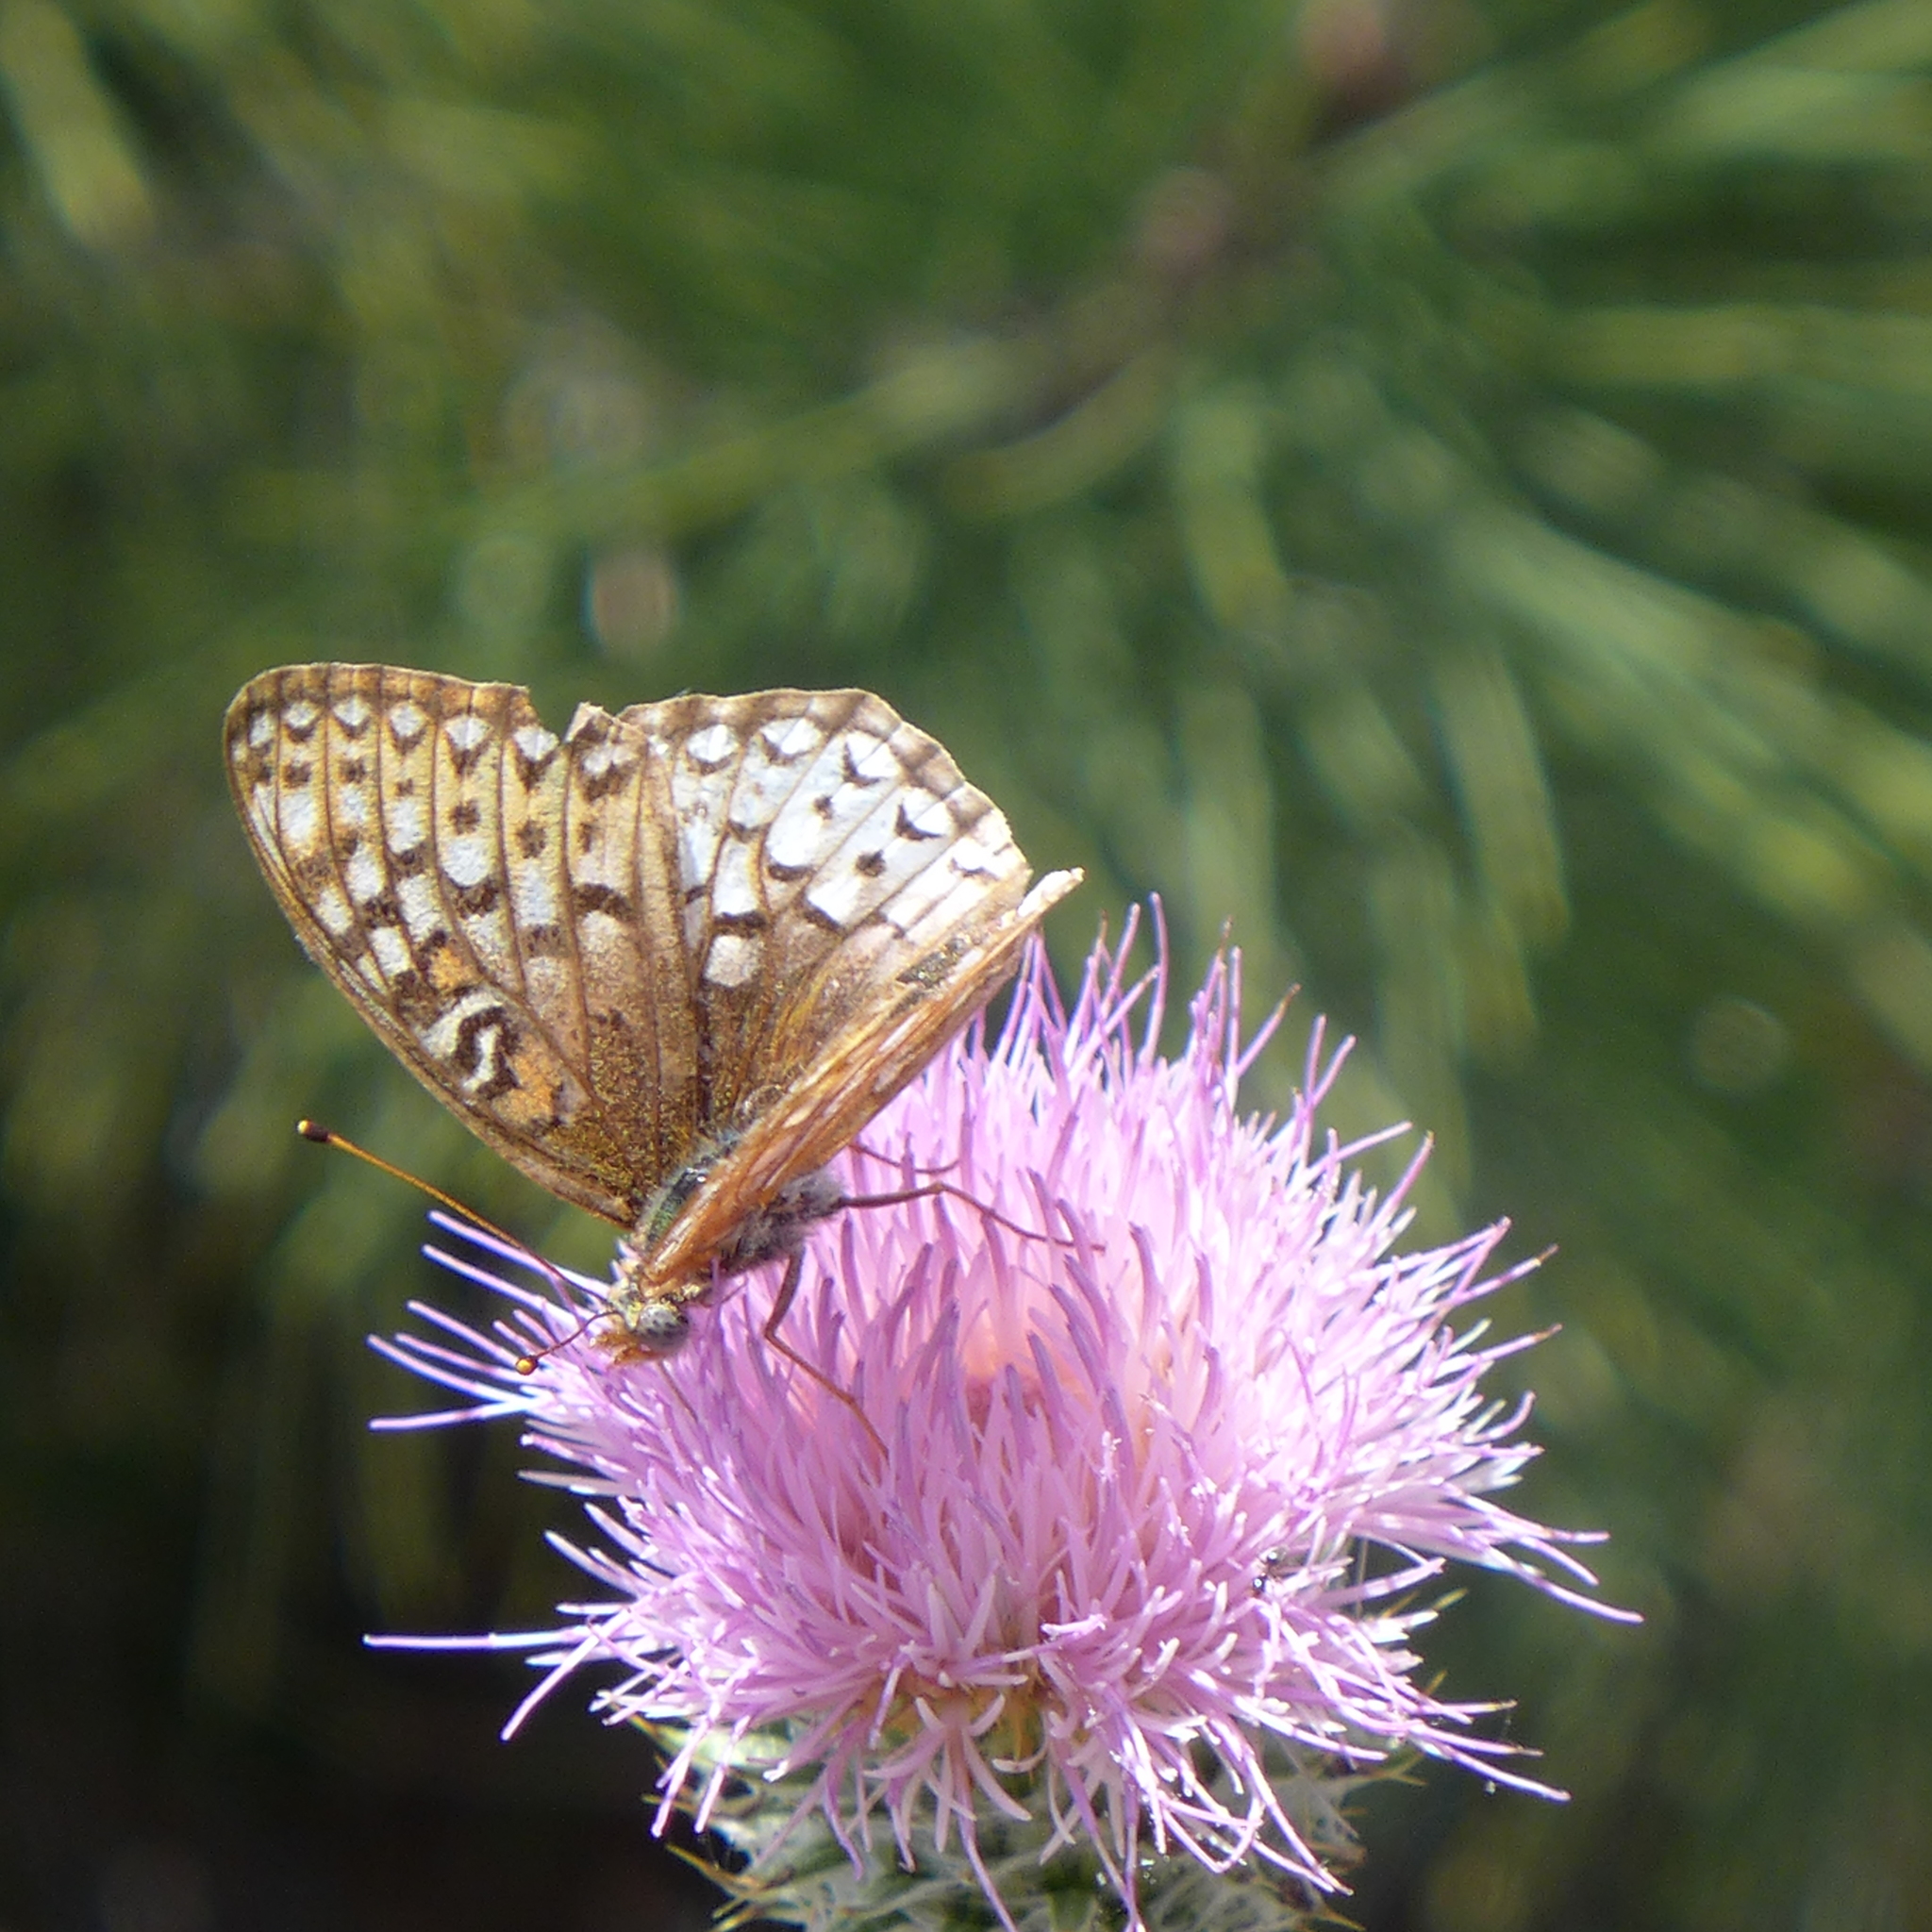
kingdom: Animalia
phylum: Arthropoda
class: Insecta
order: Lepidoptera
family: Nymphalidae
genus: Speyeria
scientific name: Speyeria callippe
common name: Callippe fritillary
